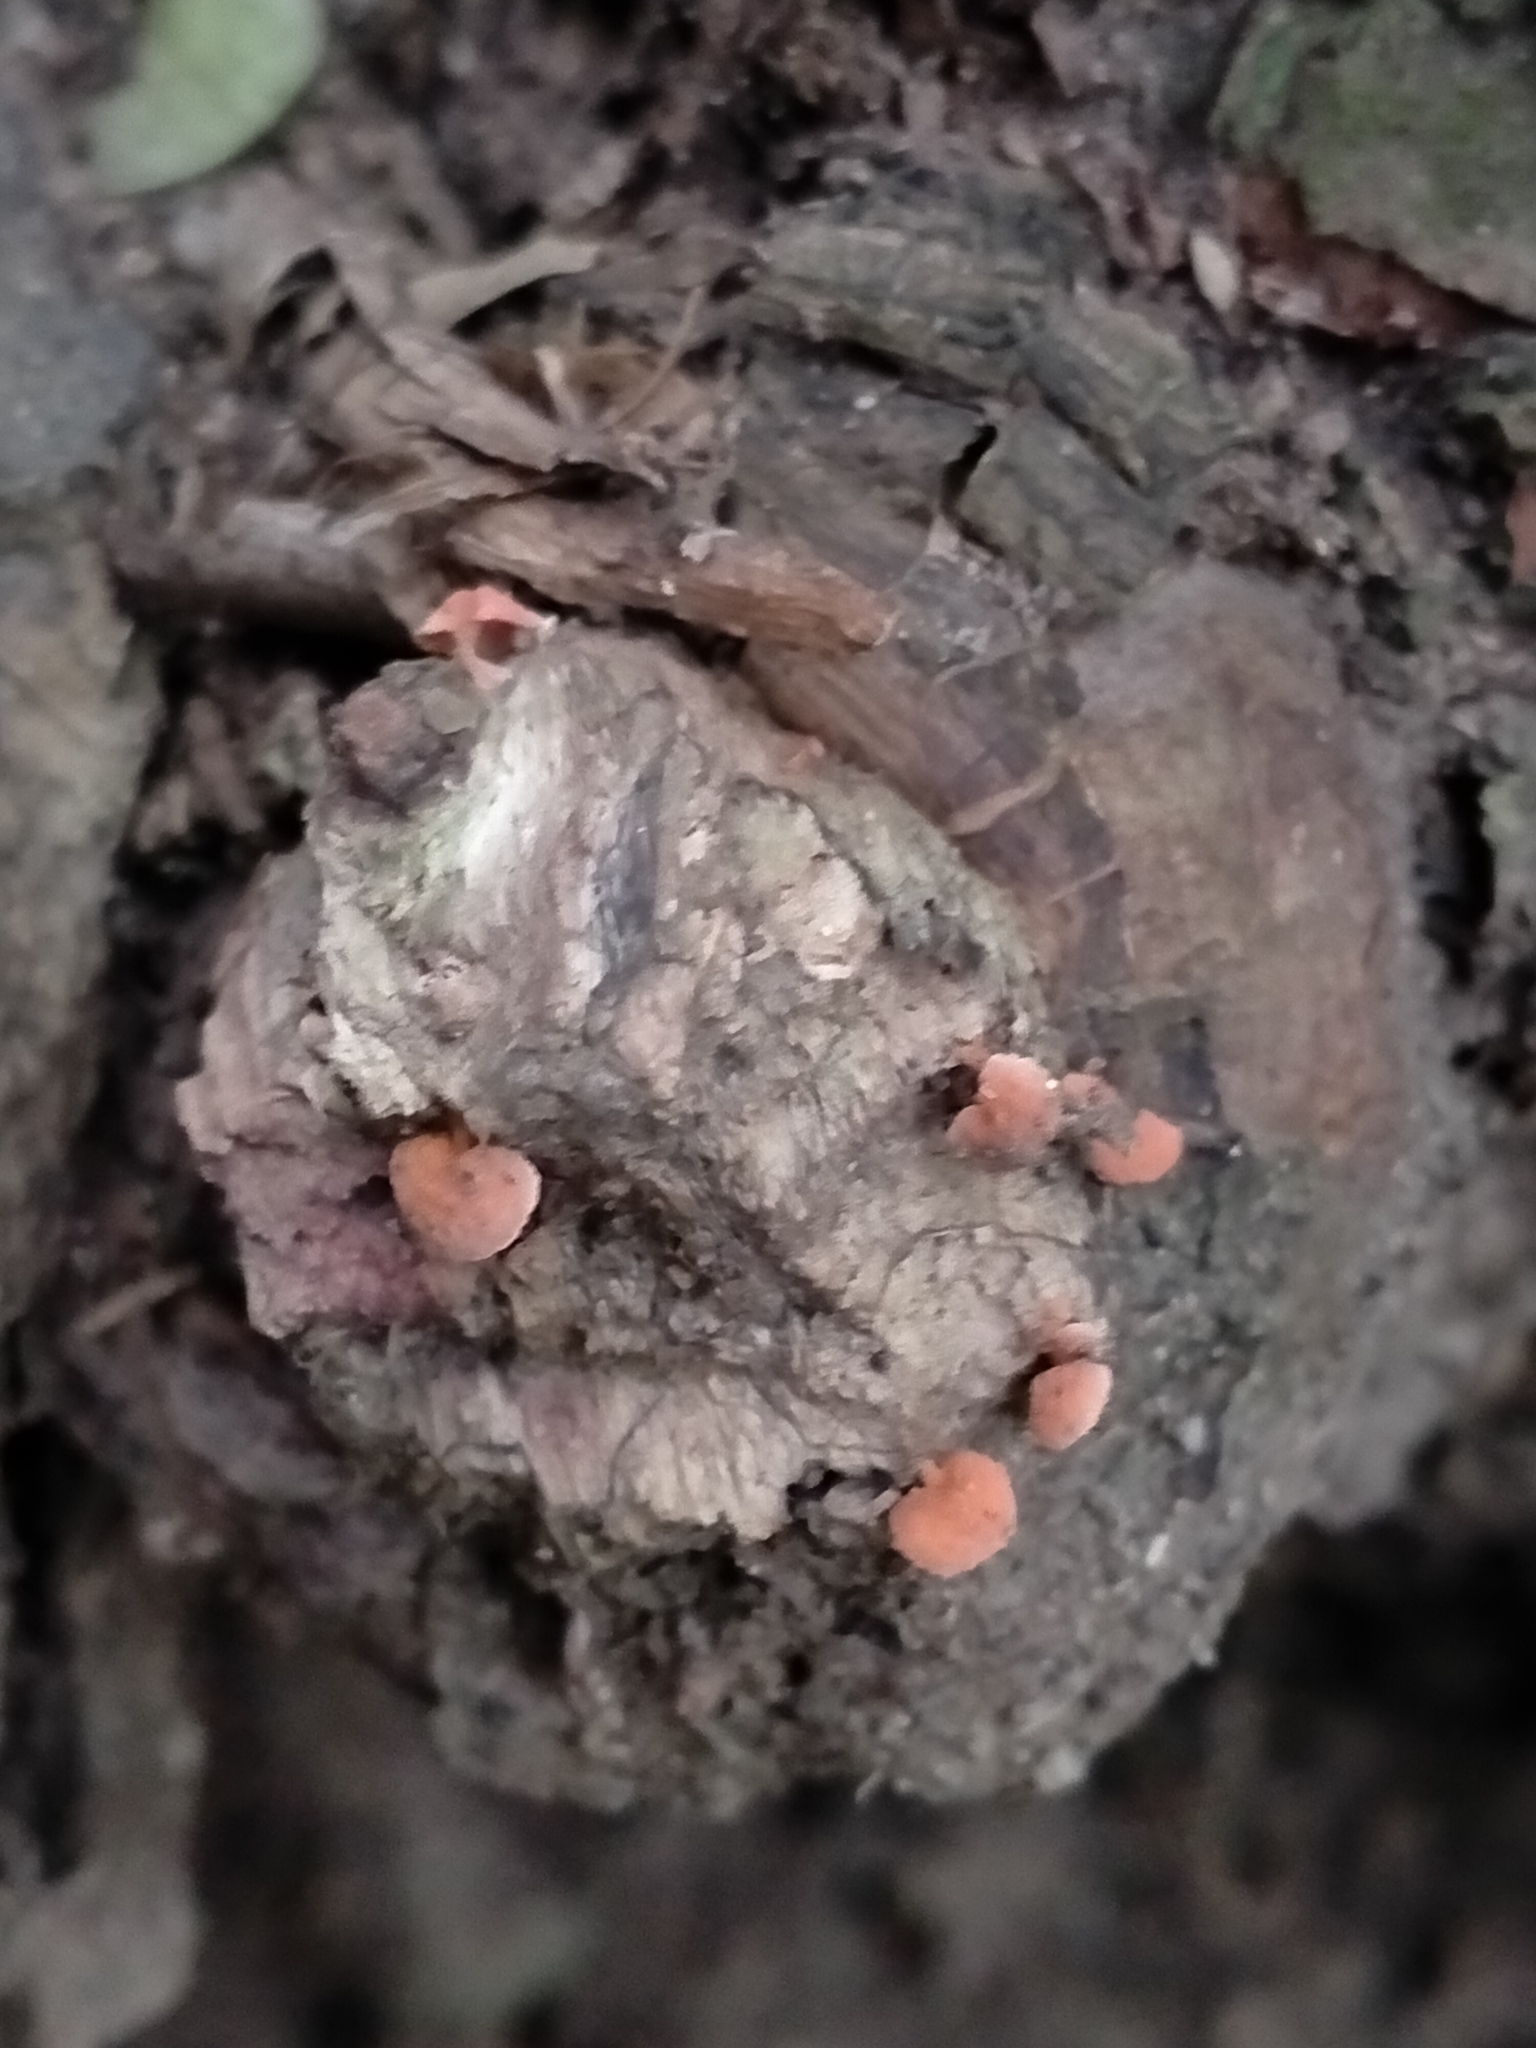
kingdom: Fungi
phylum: Basidiomycota
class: Agaricomycetes
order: Agaricales
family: Mycenaceae
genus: Favolaschia
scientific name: Favolaschia claudopus
